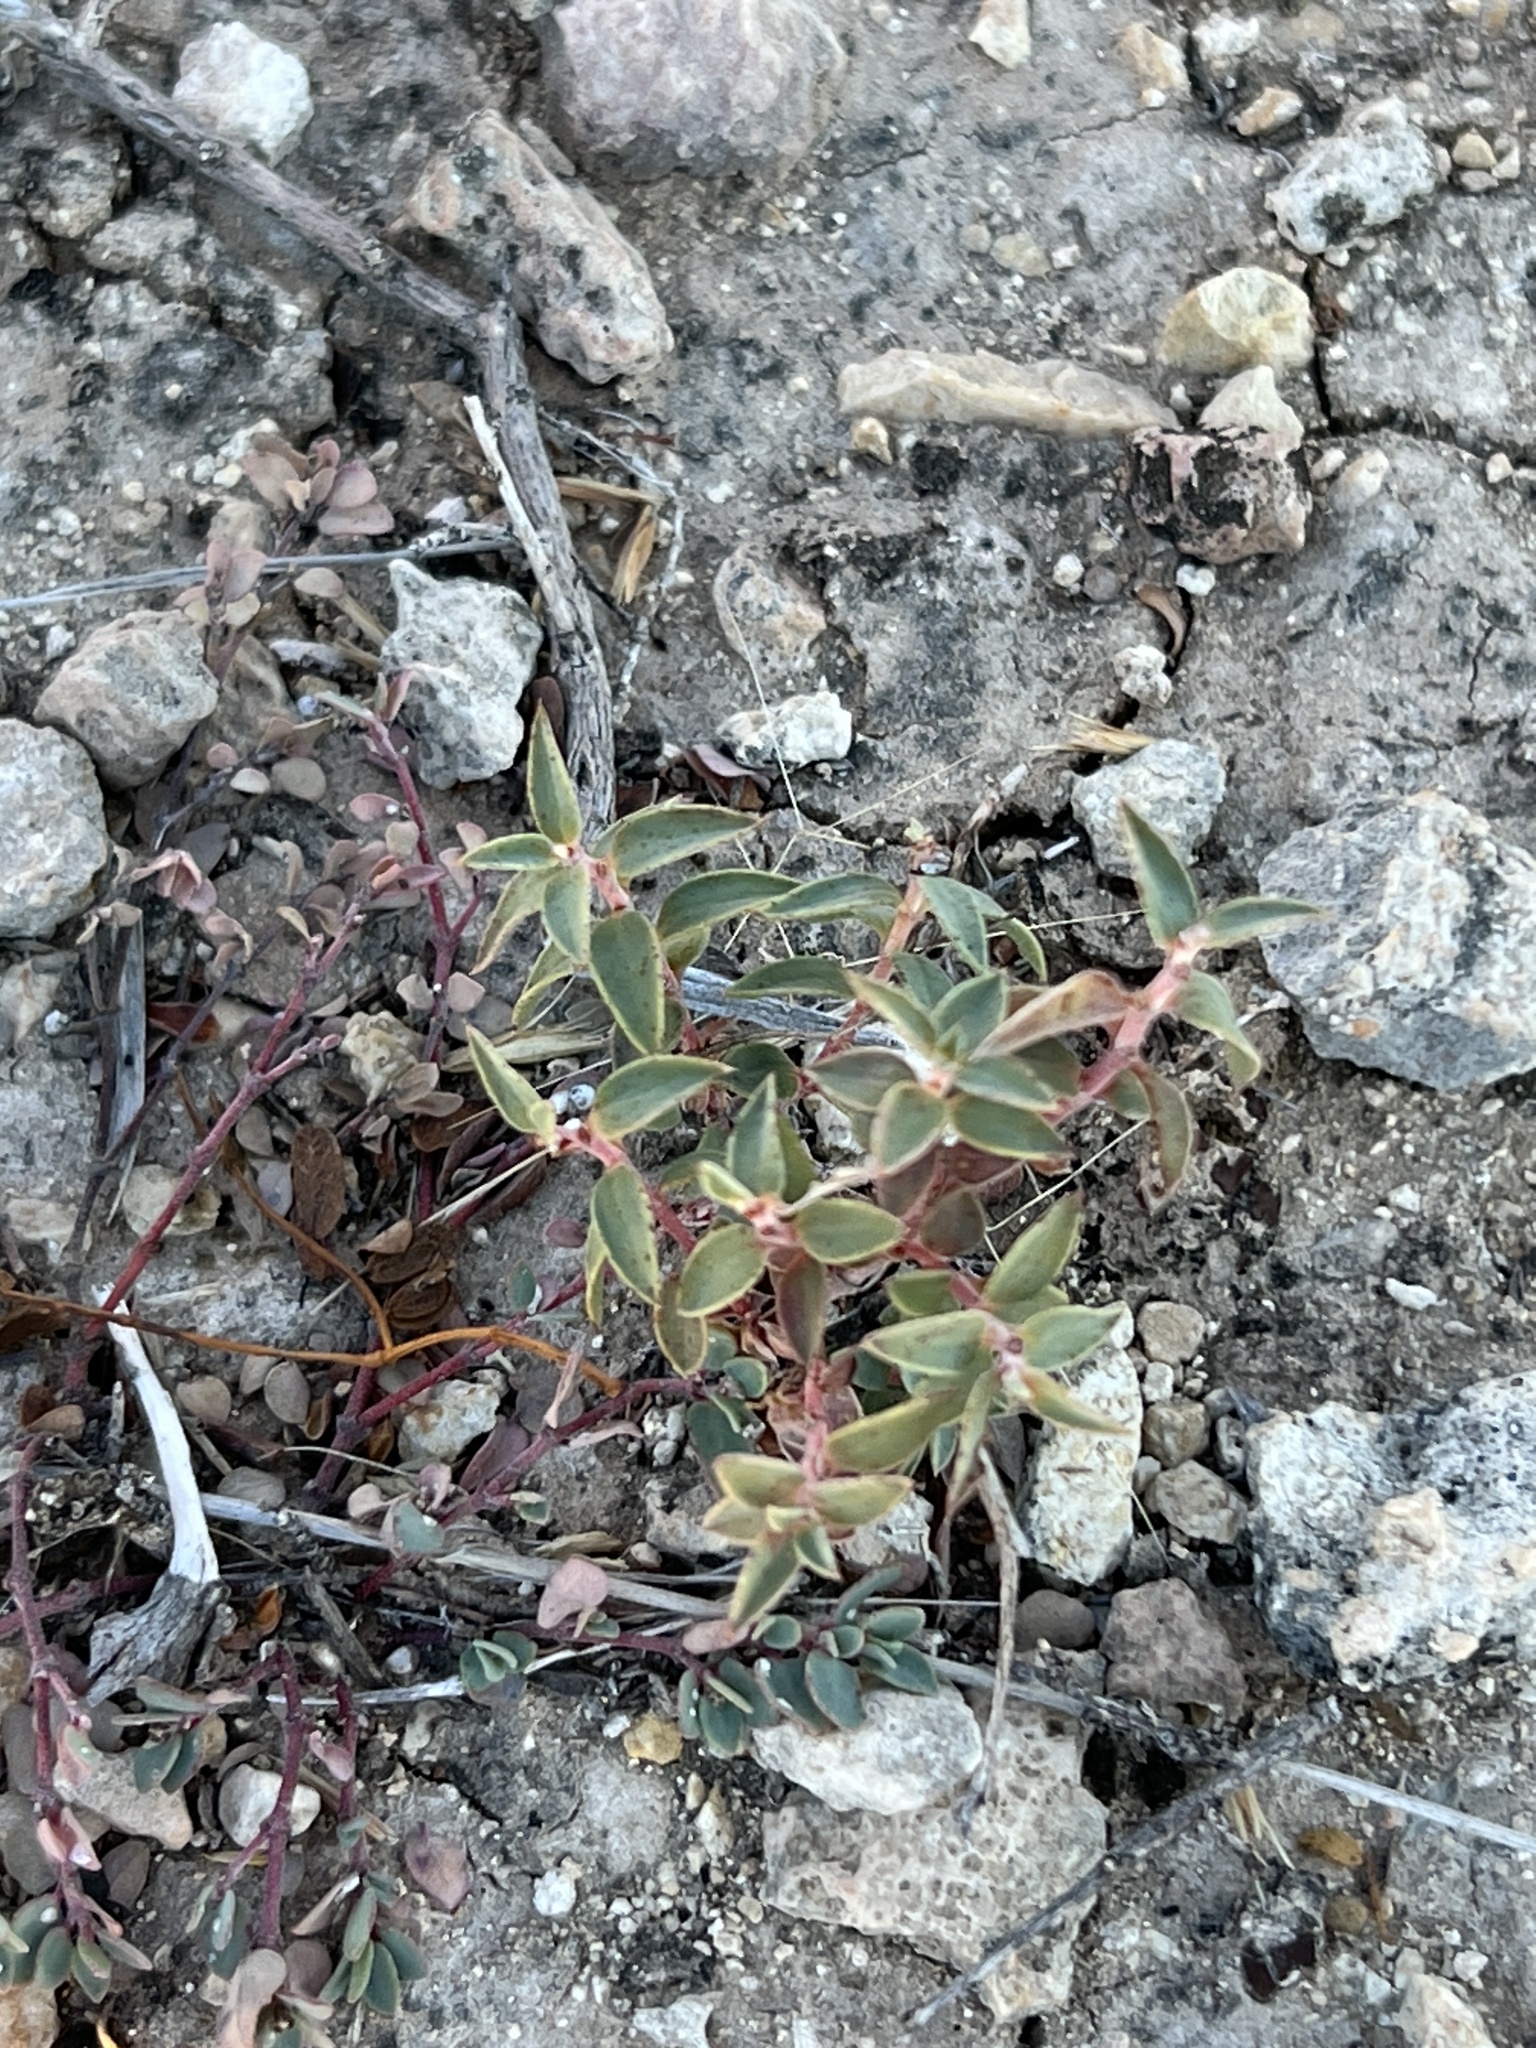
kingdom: Plantae
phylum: Tracheophyta
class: Magnoliopsida
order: Malpighiales
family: Euphorbiaceae
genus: Euphorbia
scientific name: Euphorbia acuta
